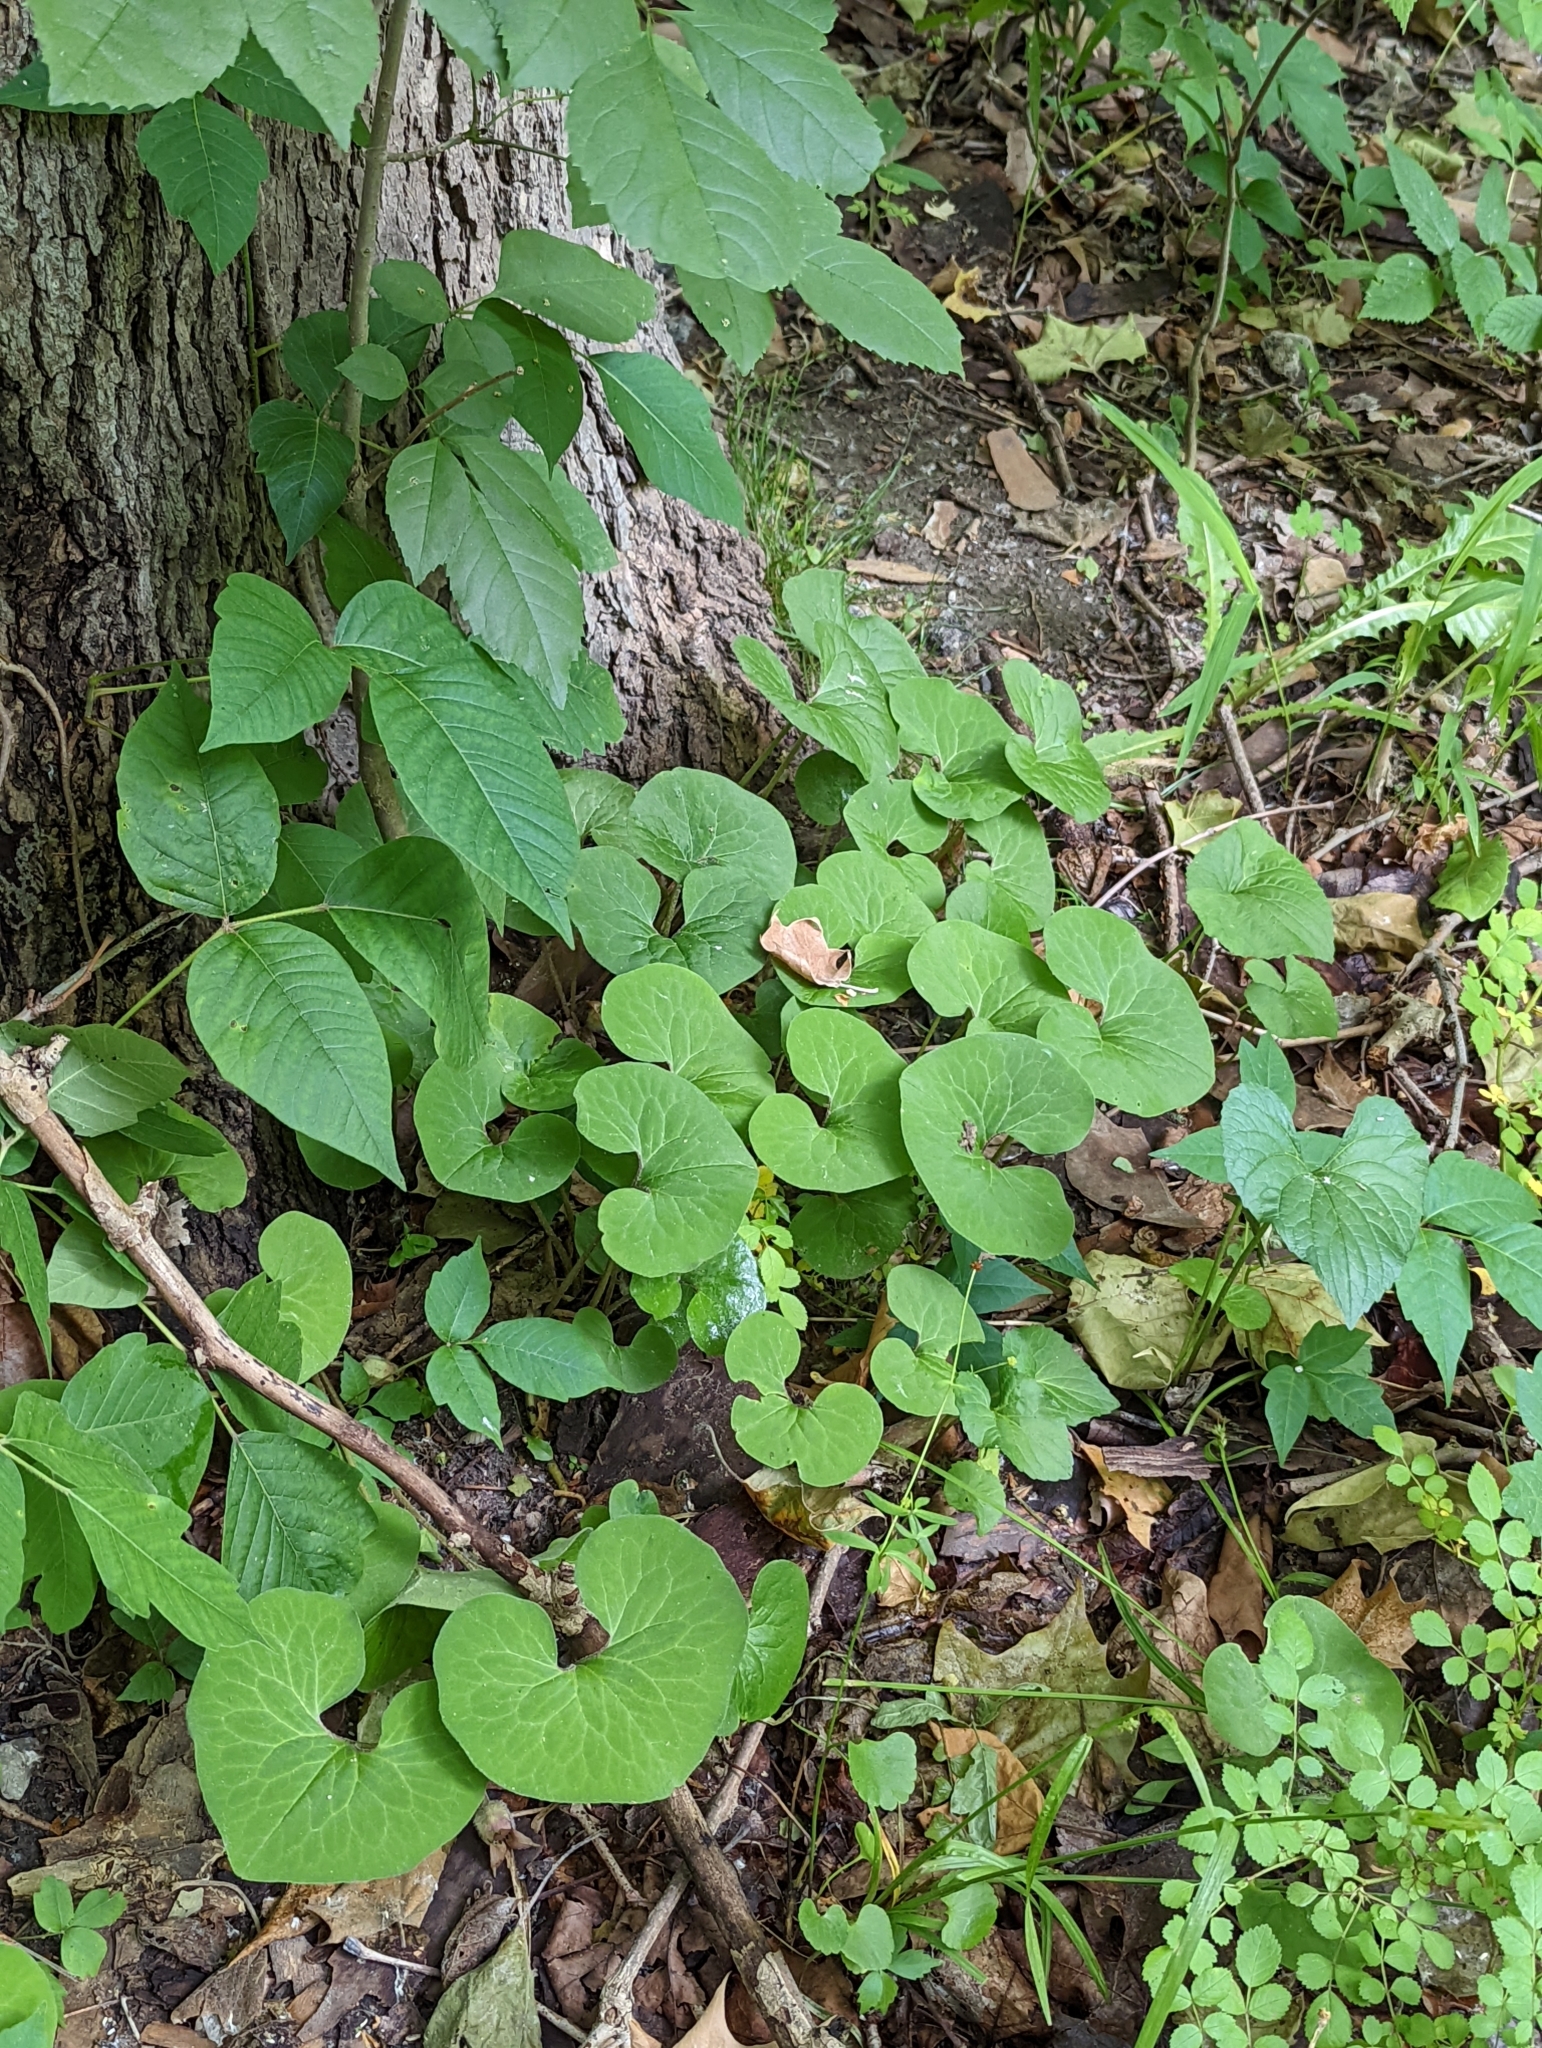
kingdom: Plantae
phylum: Tracheophyta
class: Magnoliopsida
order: Piperales
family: Aristolochiaceae
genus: Asarum
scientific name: Asarum canadense
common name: Wild ginger
